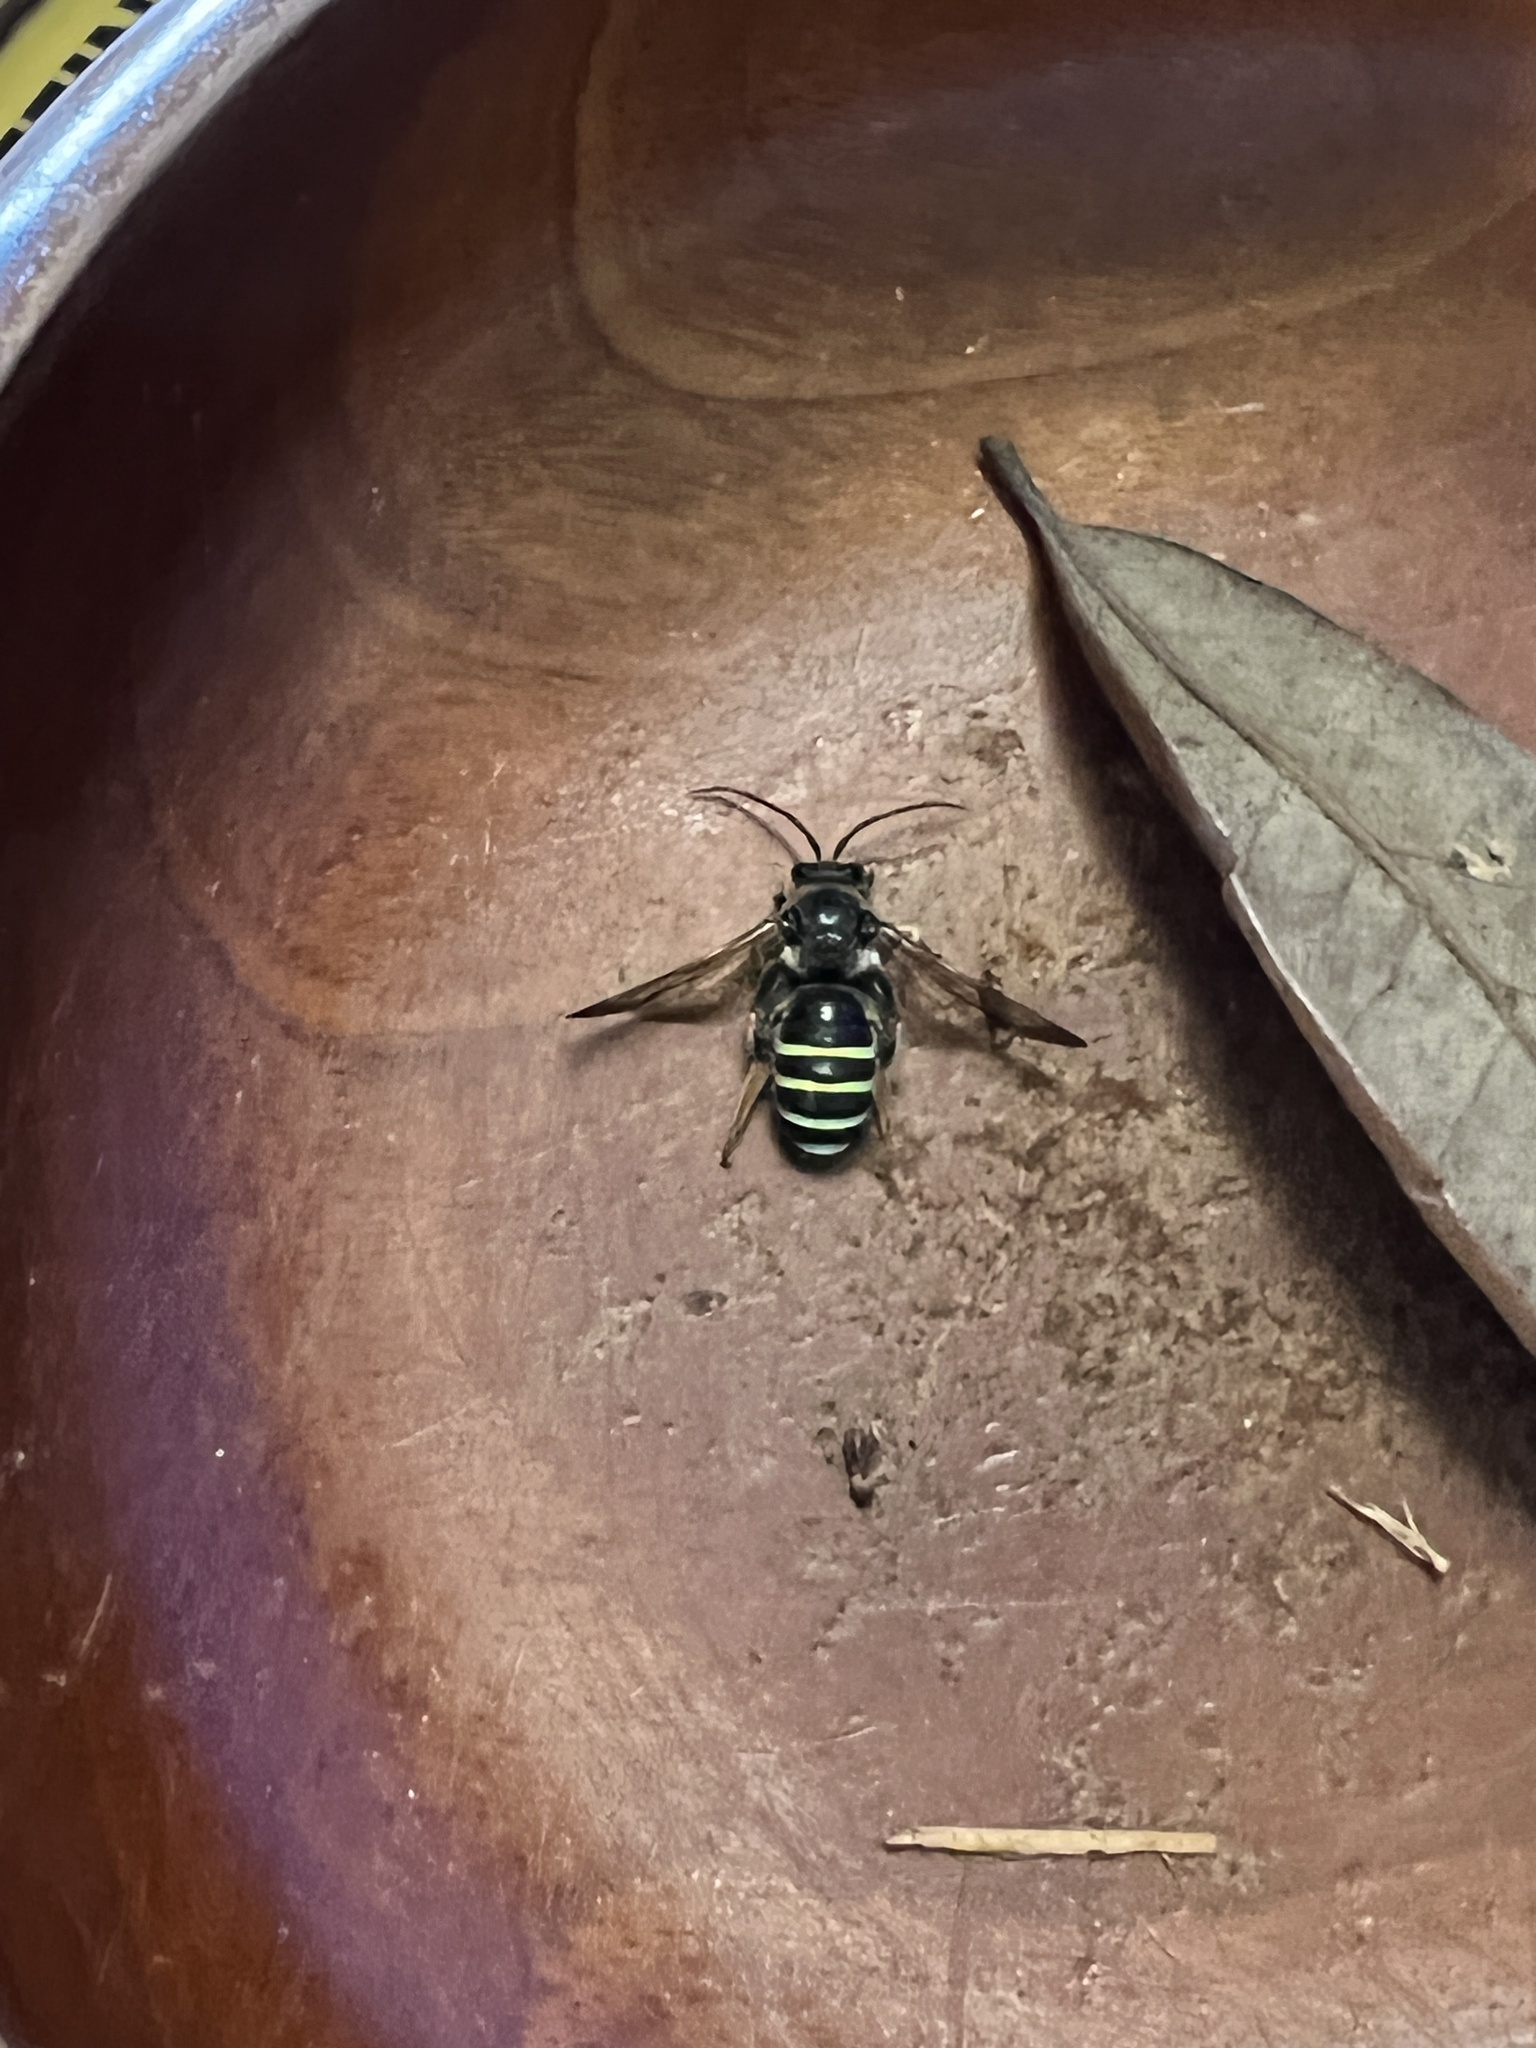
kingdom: Animalia
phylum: Arthropoda
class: Insecta
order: Hymenoptera
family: Halictidae
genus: Nomia
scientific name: Nomia nortoni
